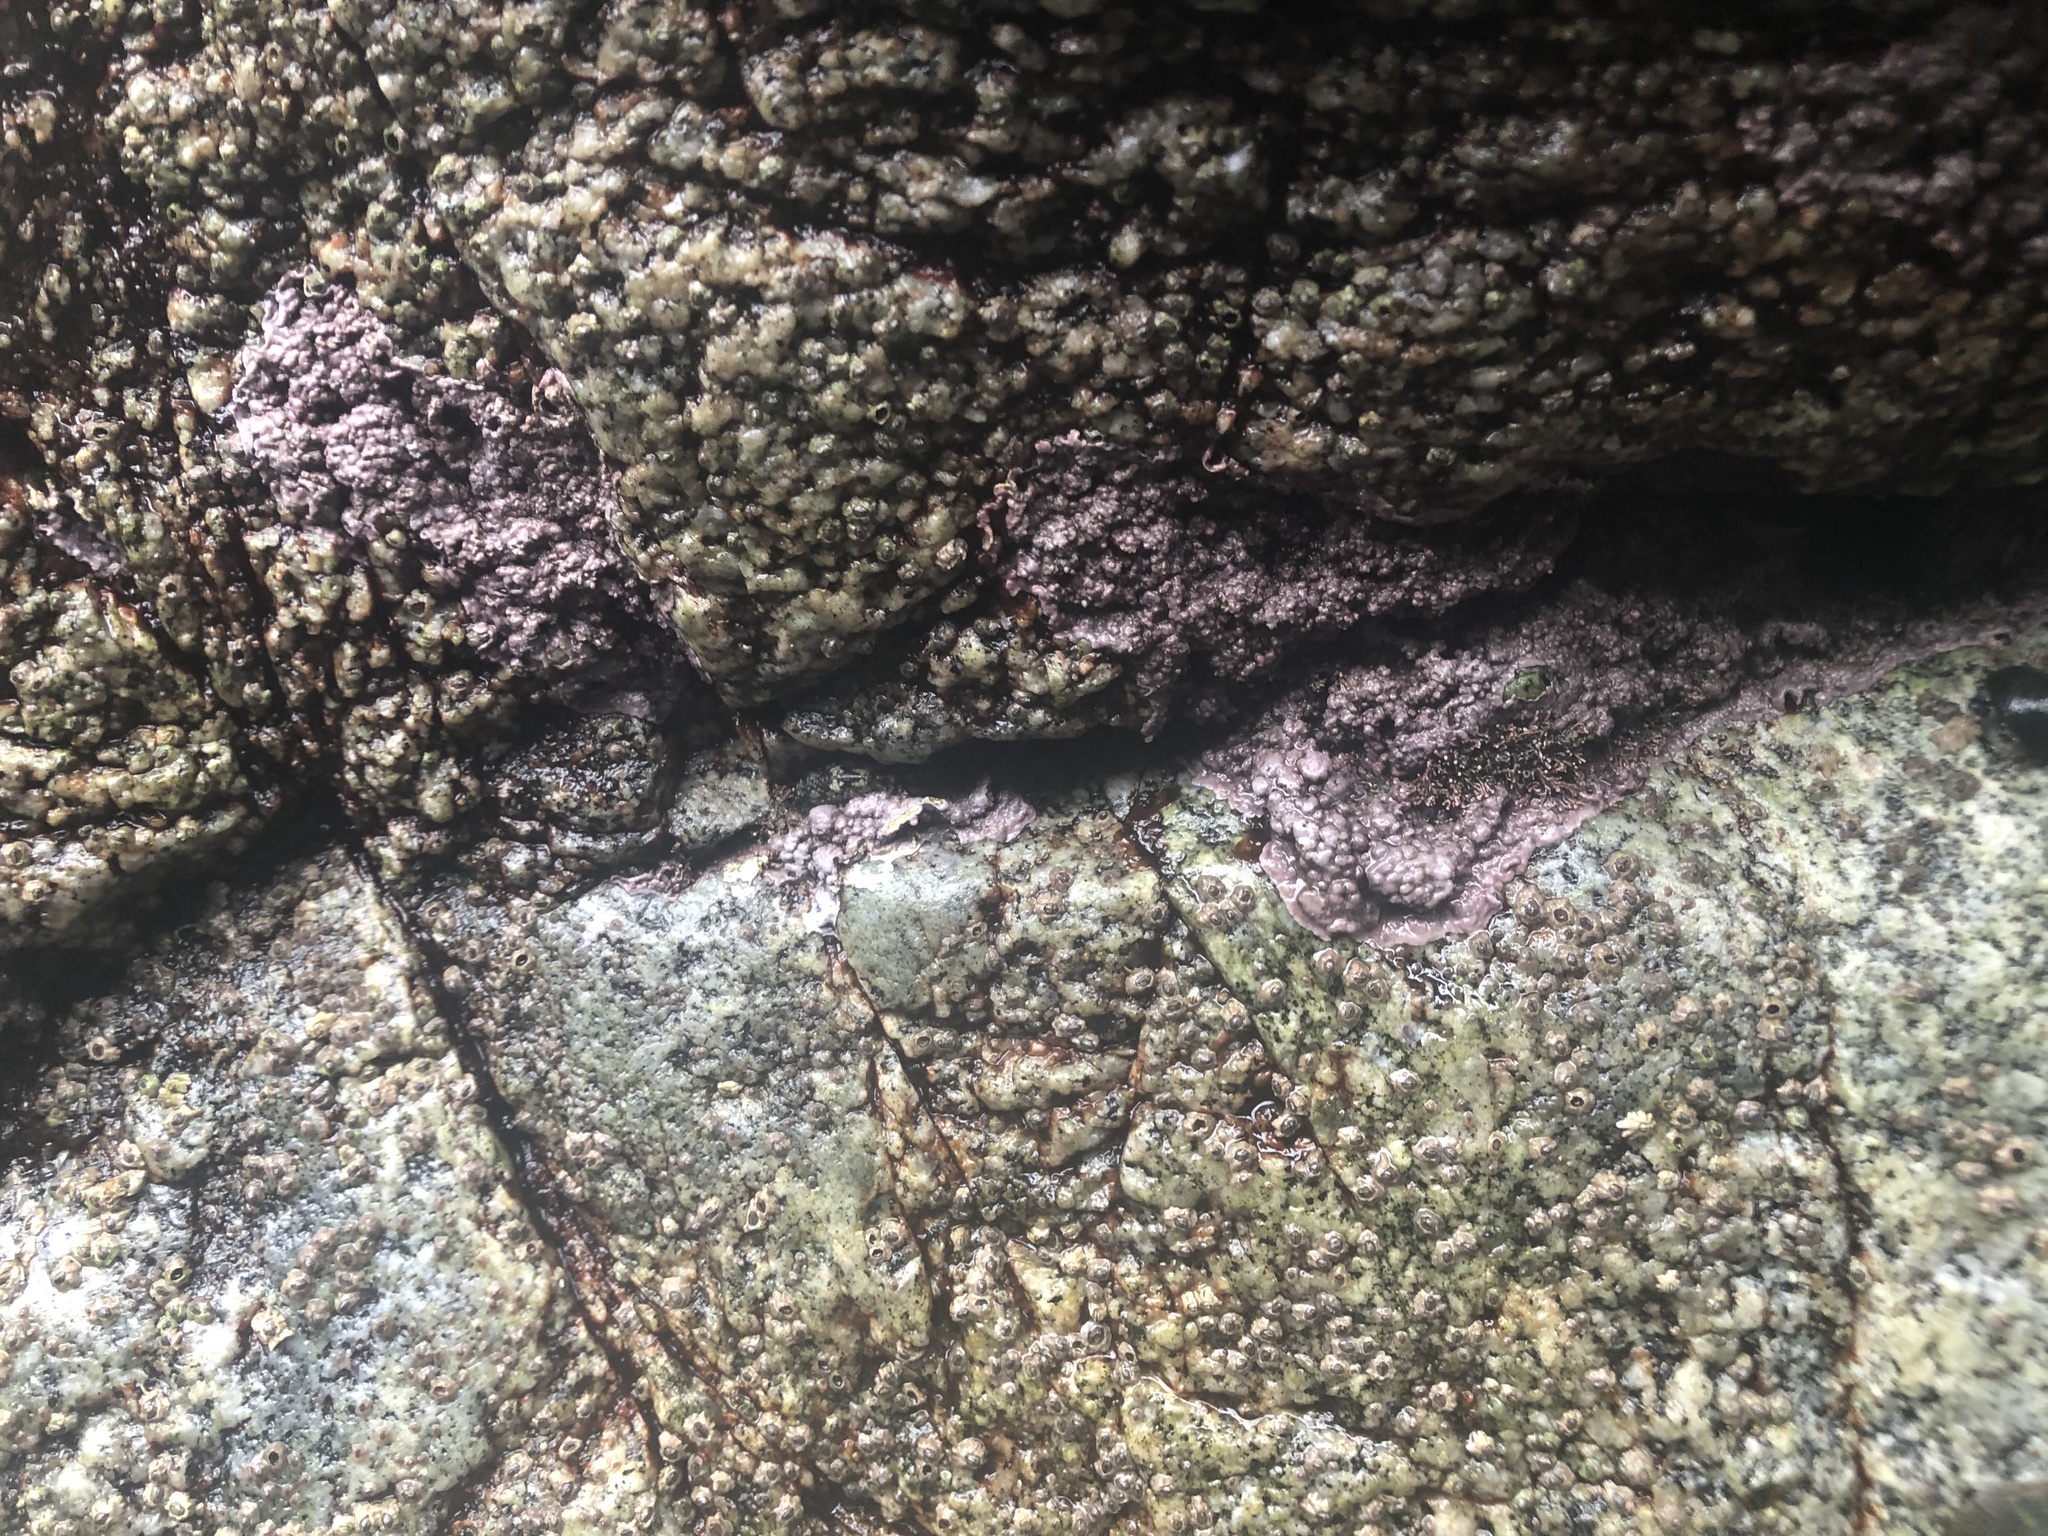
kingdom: Plantae
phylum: Rhodophyta
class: Florideophyceae
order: Corallinales
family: Corallinaceae
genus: Chamberlainium
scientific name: Chamberlainium tumidum
